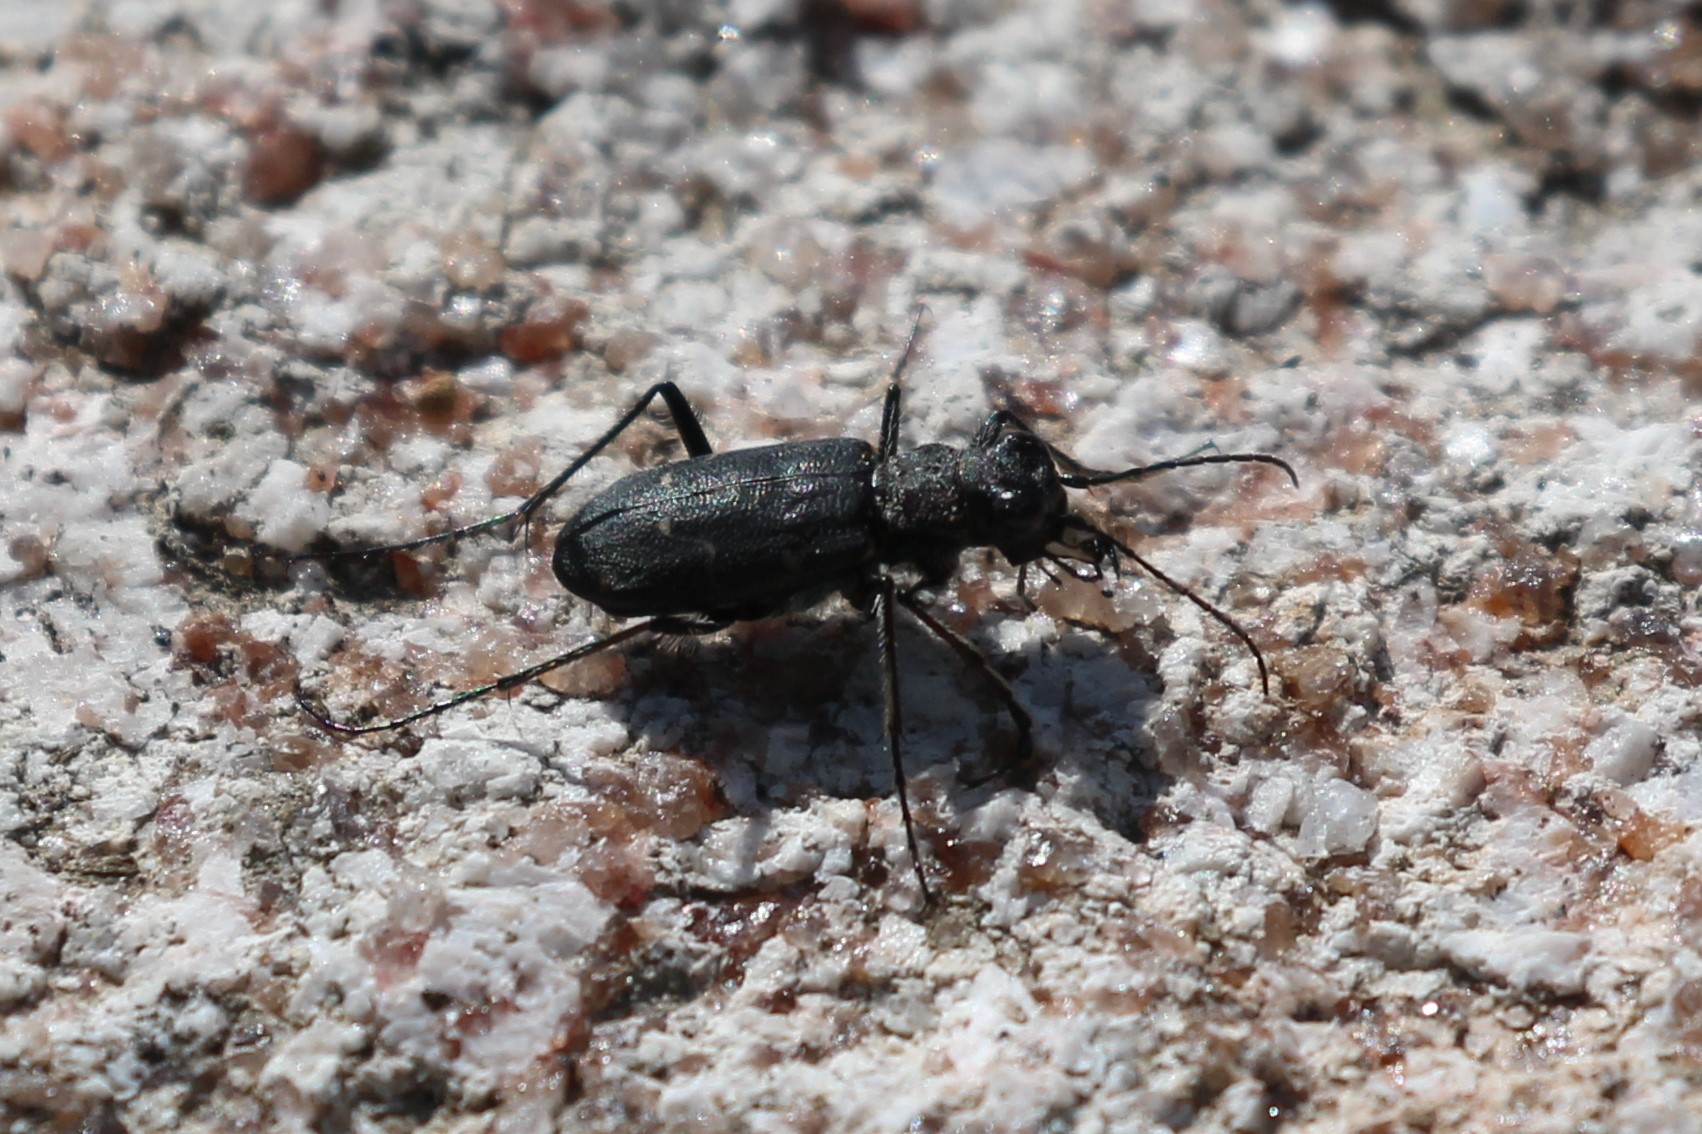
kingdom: Animalia
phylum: Arthropoda
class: Insecta
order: Coleoptera
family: Carabidae
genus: Cicindela
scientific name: Cicindela longilabris
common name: Boreal long-lipped tiger beetle
